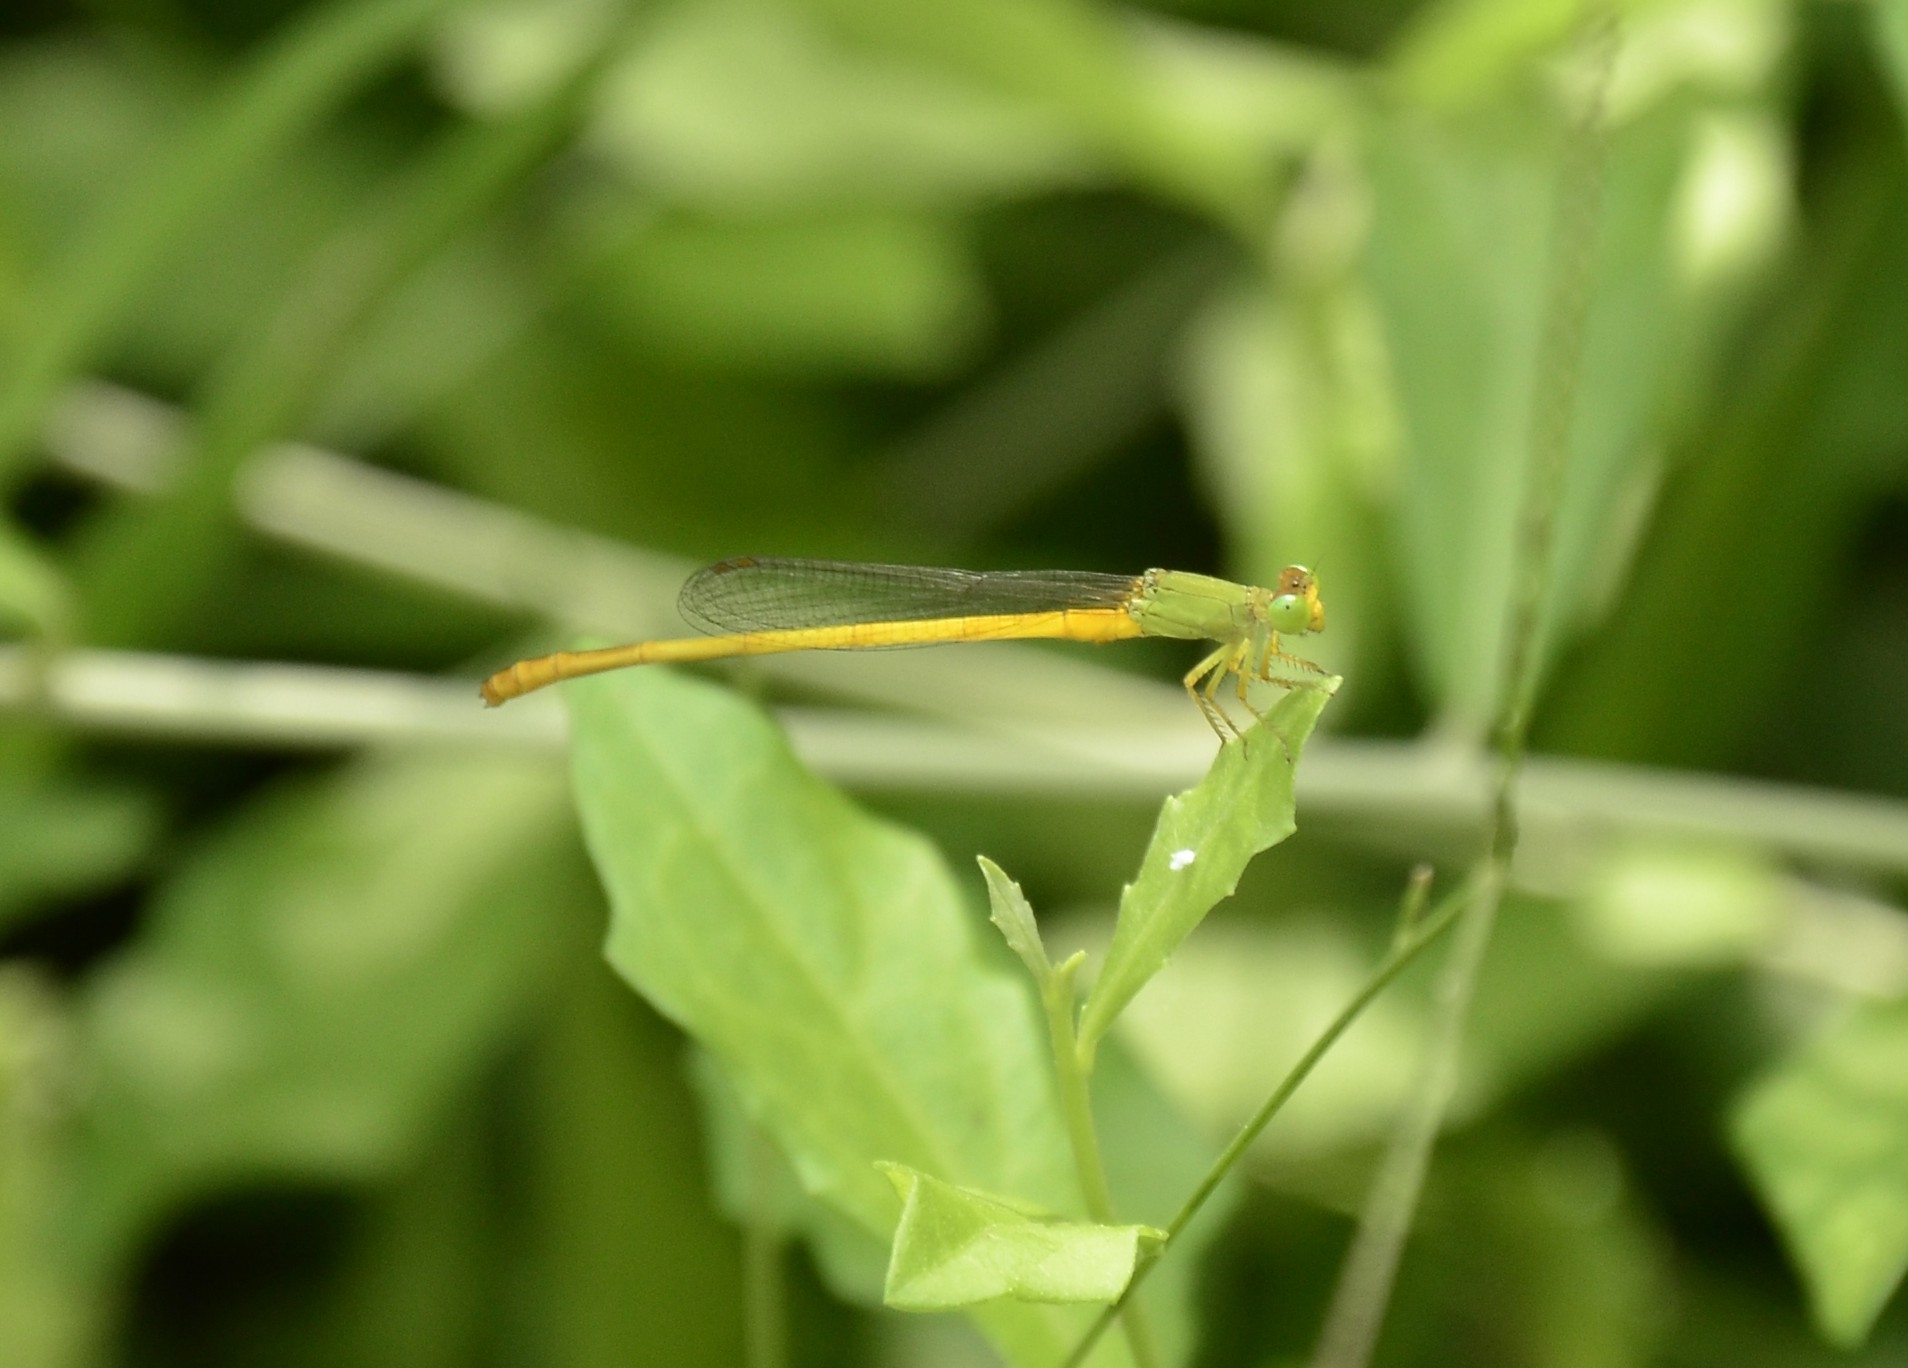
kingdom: Animalia
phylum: Arthropoda
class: Insecta
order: Odonata
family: Coenagrionidae
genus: Ceriagrion
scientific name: Ceriagrion coromandelianum
